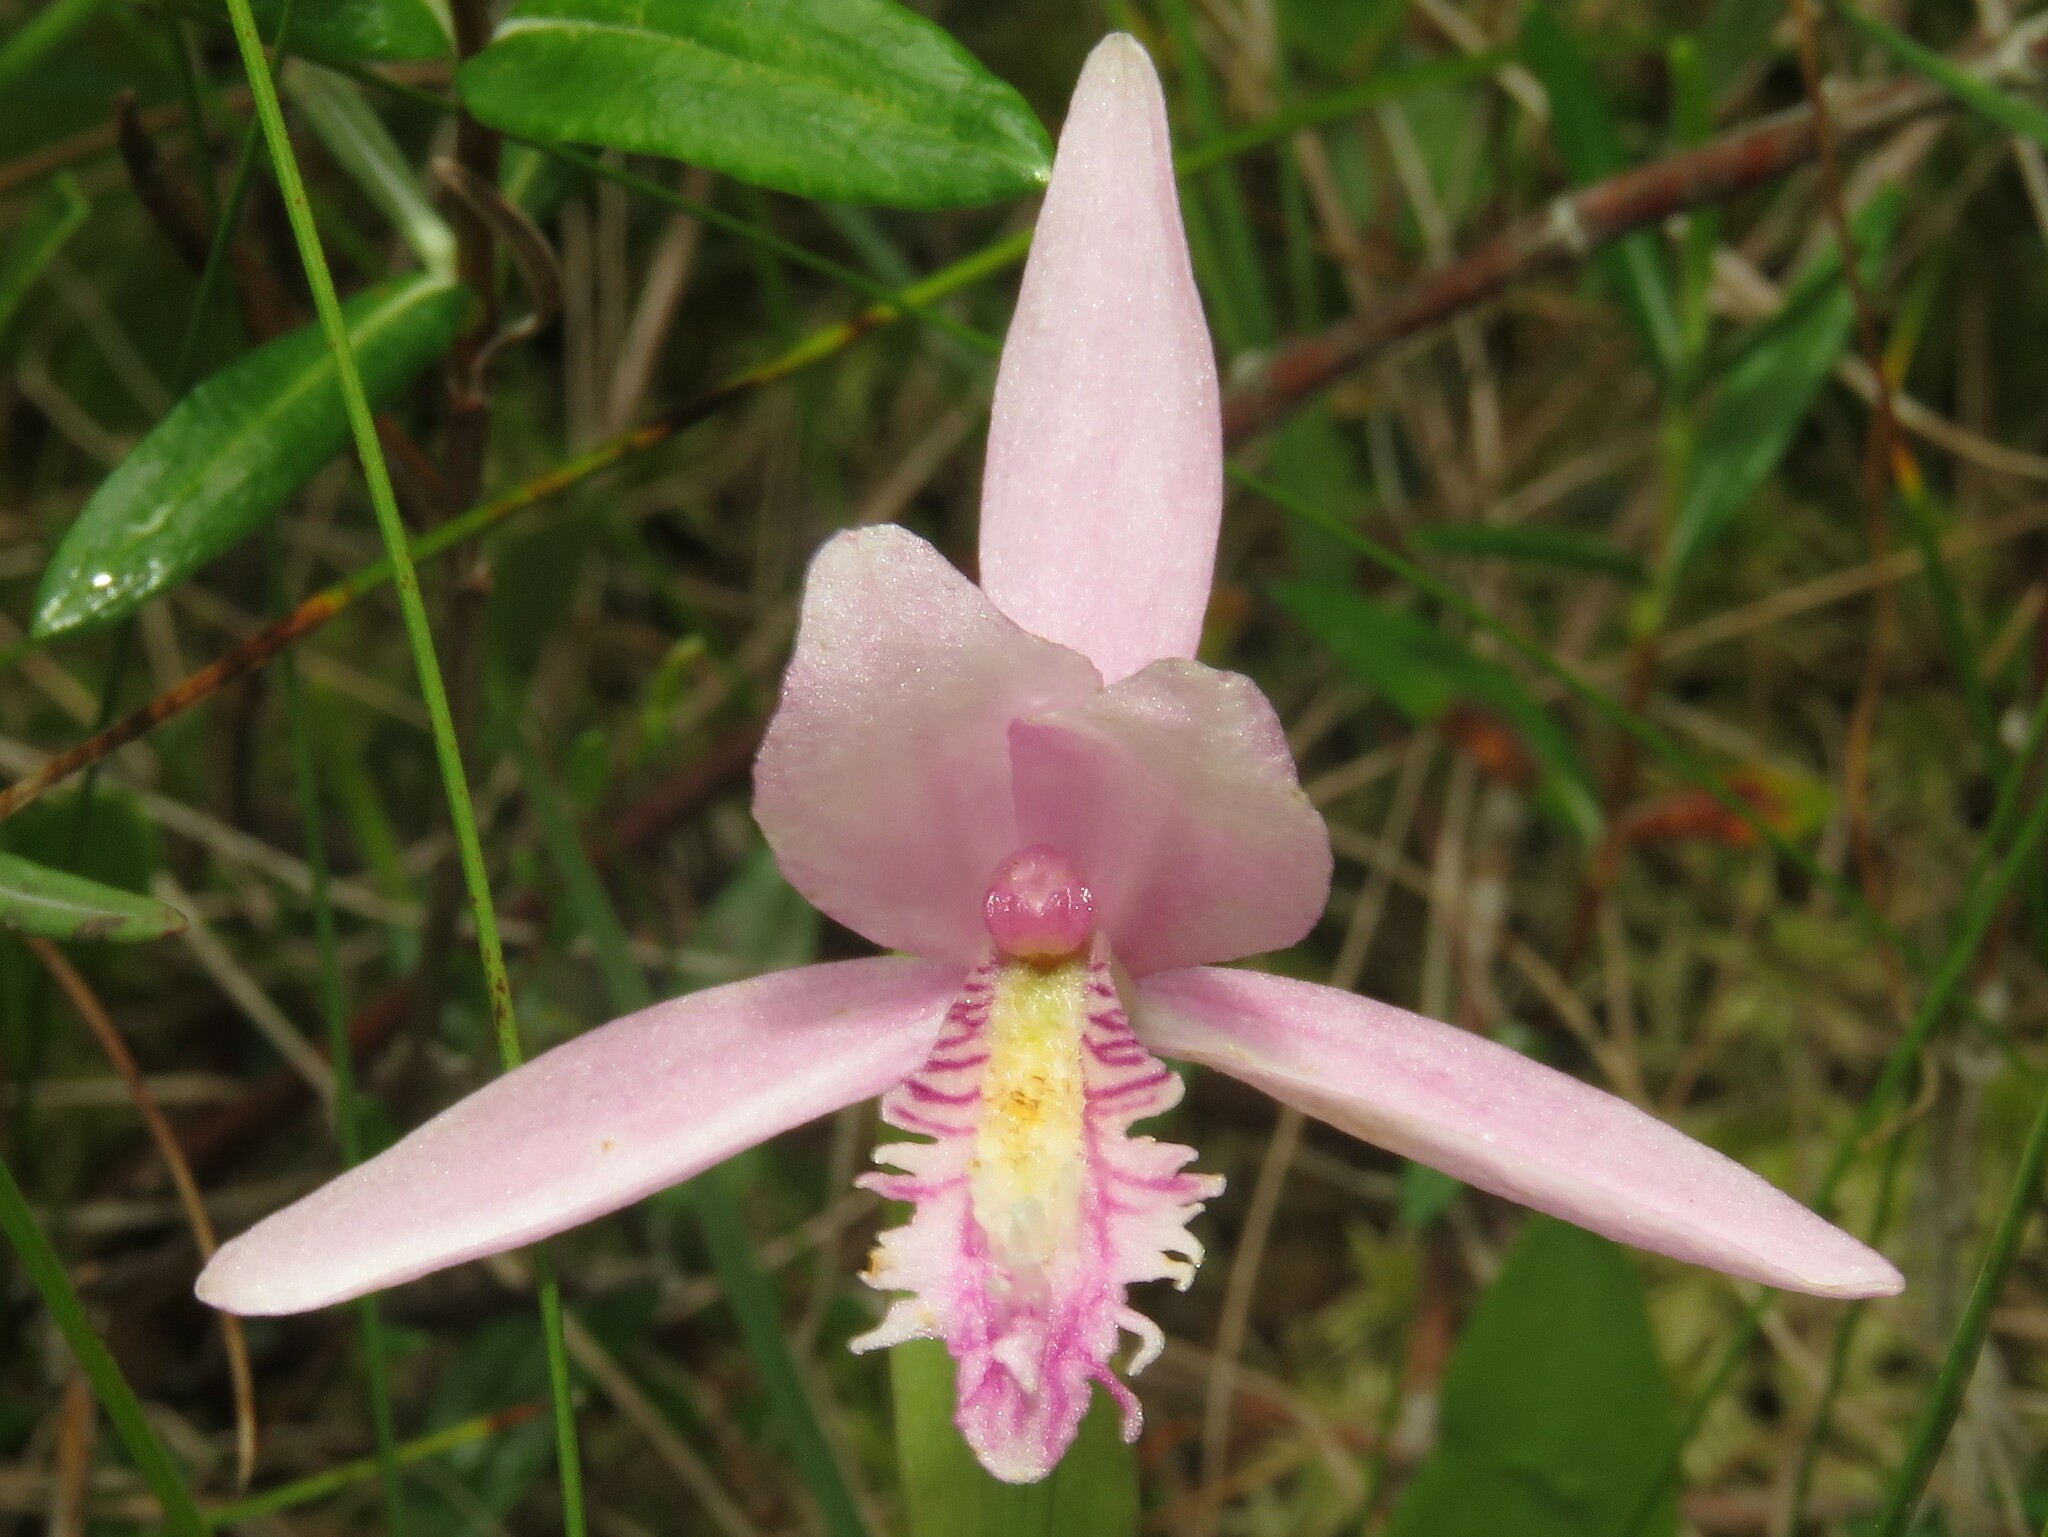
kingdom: Plantae
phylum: Tracheophyta
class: Liliopsida
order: Asparagales
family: Orchidaceae
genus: Pogonia
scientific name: Pogonia ophioglossoides
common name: Rose pogonia
